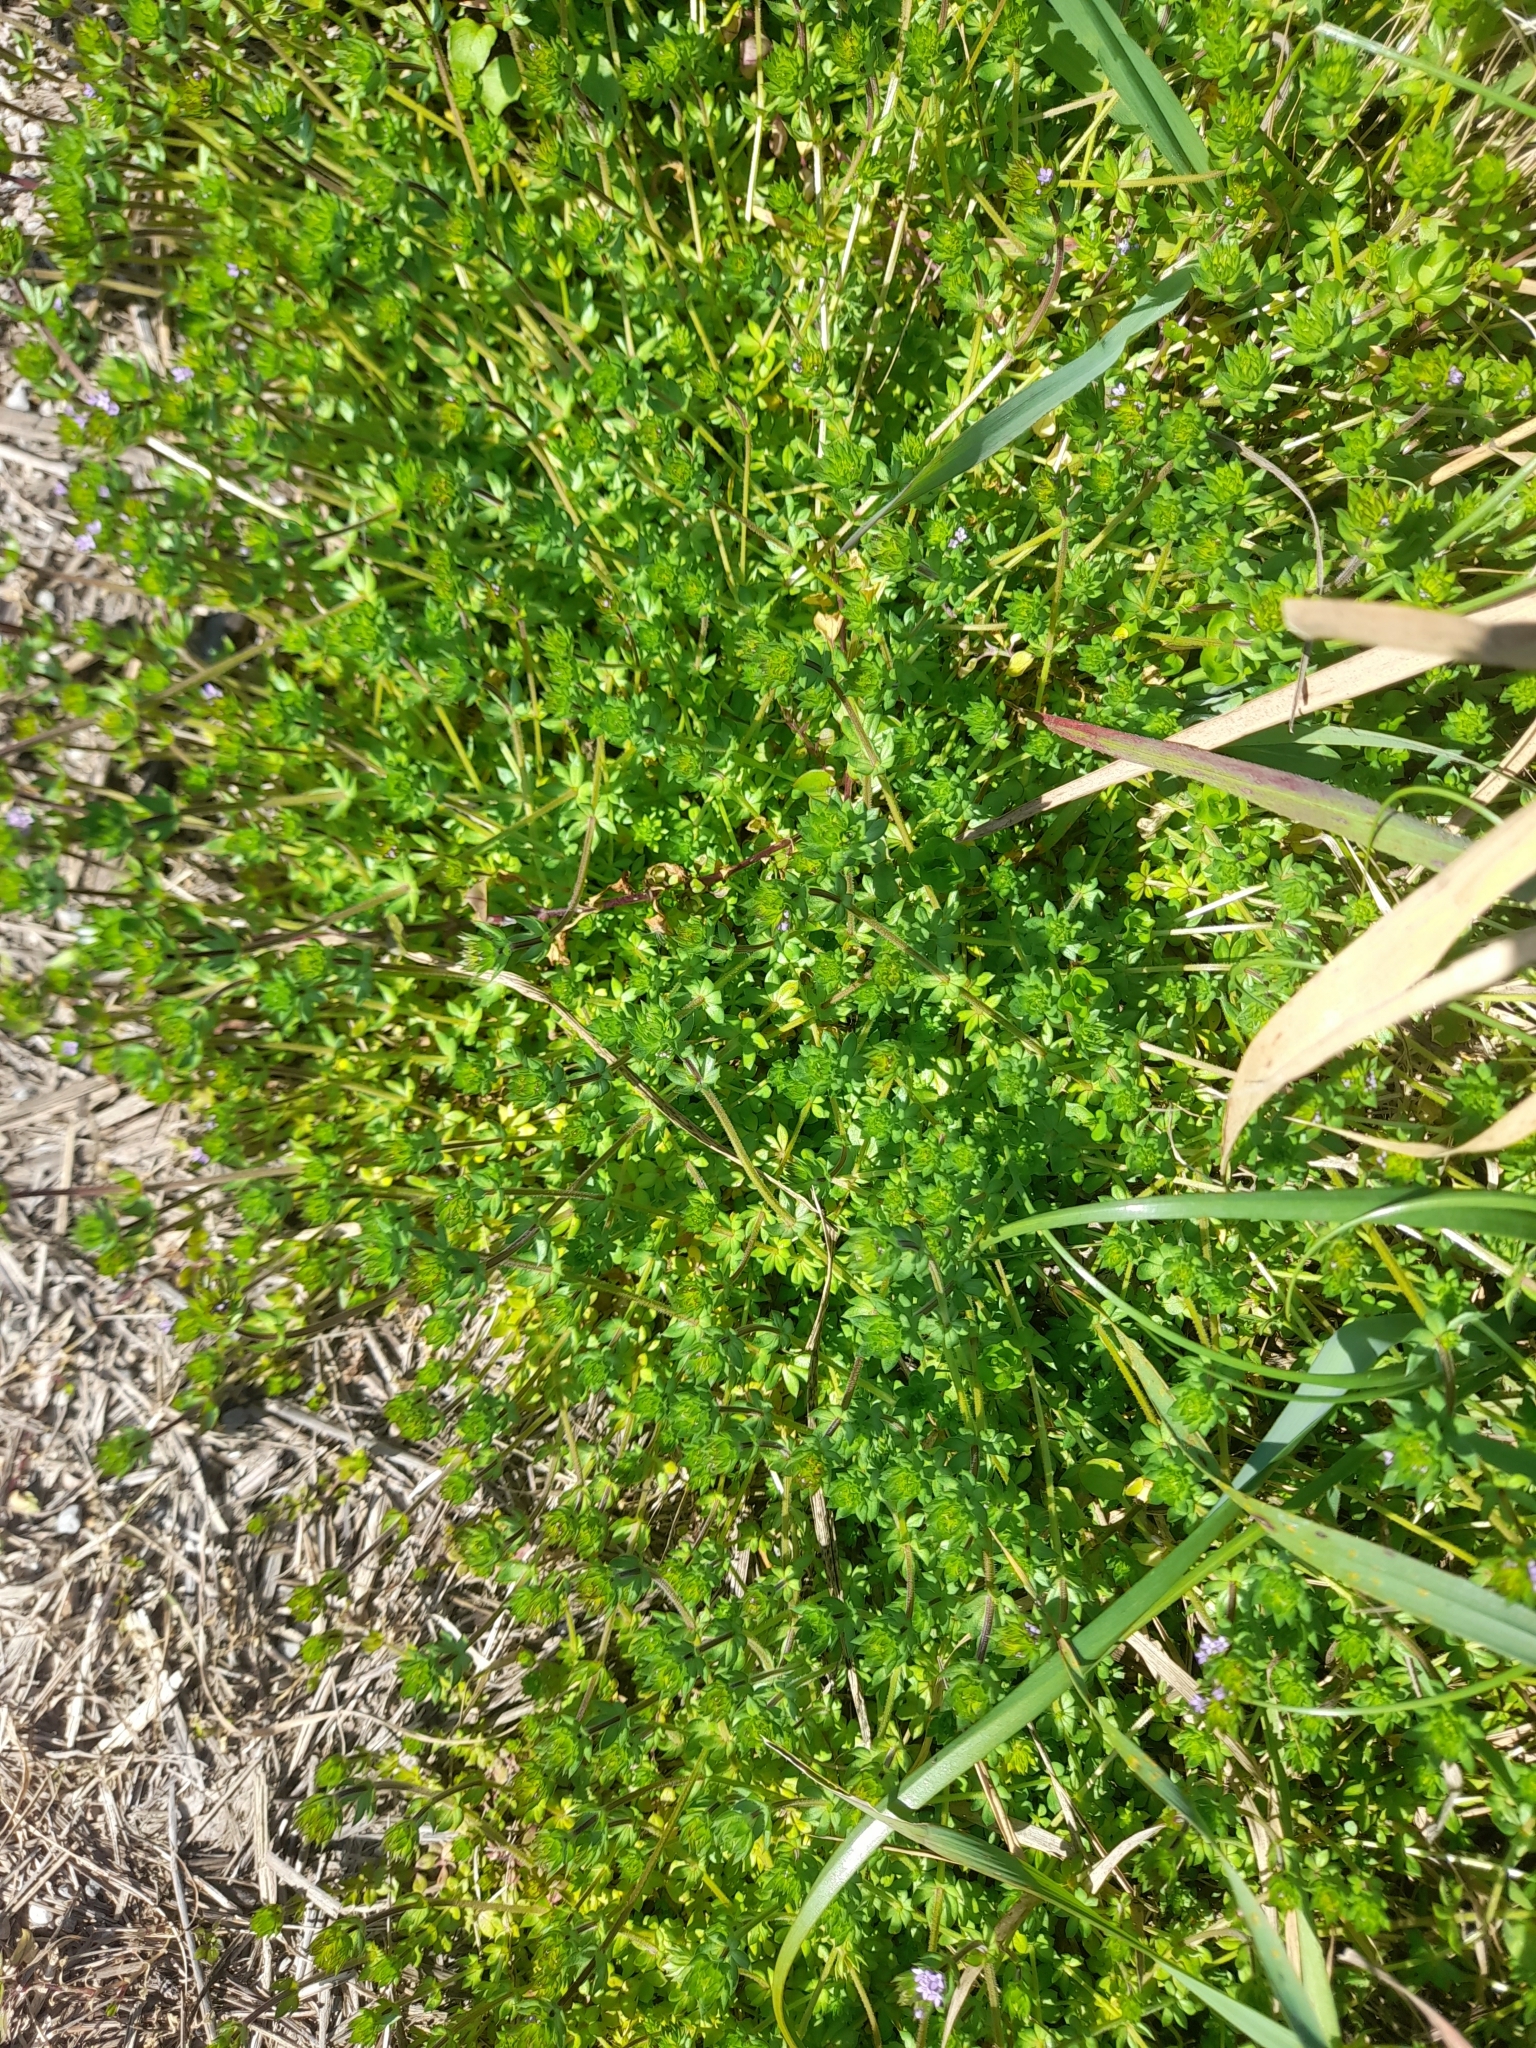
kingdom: Plantae
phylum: Tracheophyta
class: Magnoliopsida
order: Gentianales
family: Rubiaceae
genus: Sherardia
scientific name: Sherardia arvensis
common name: Field madder
